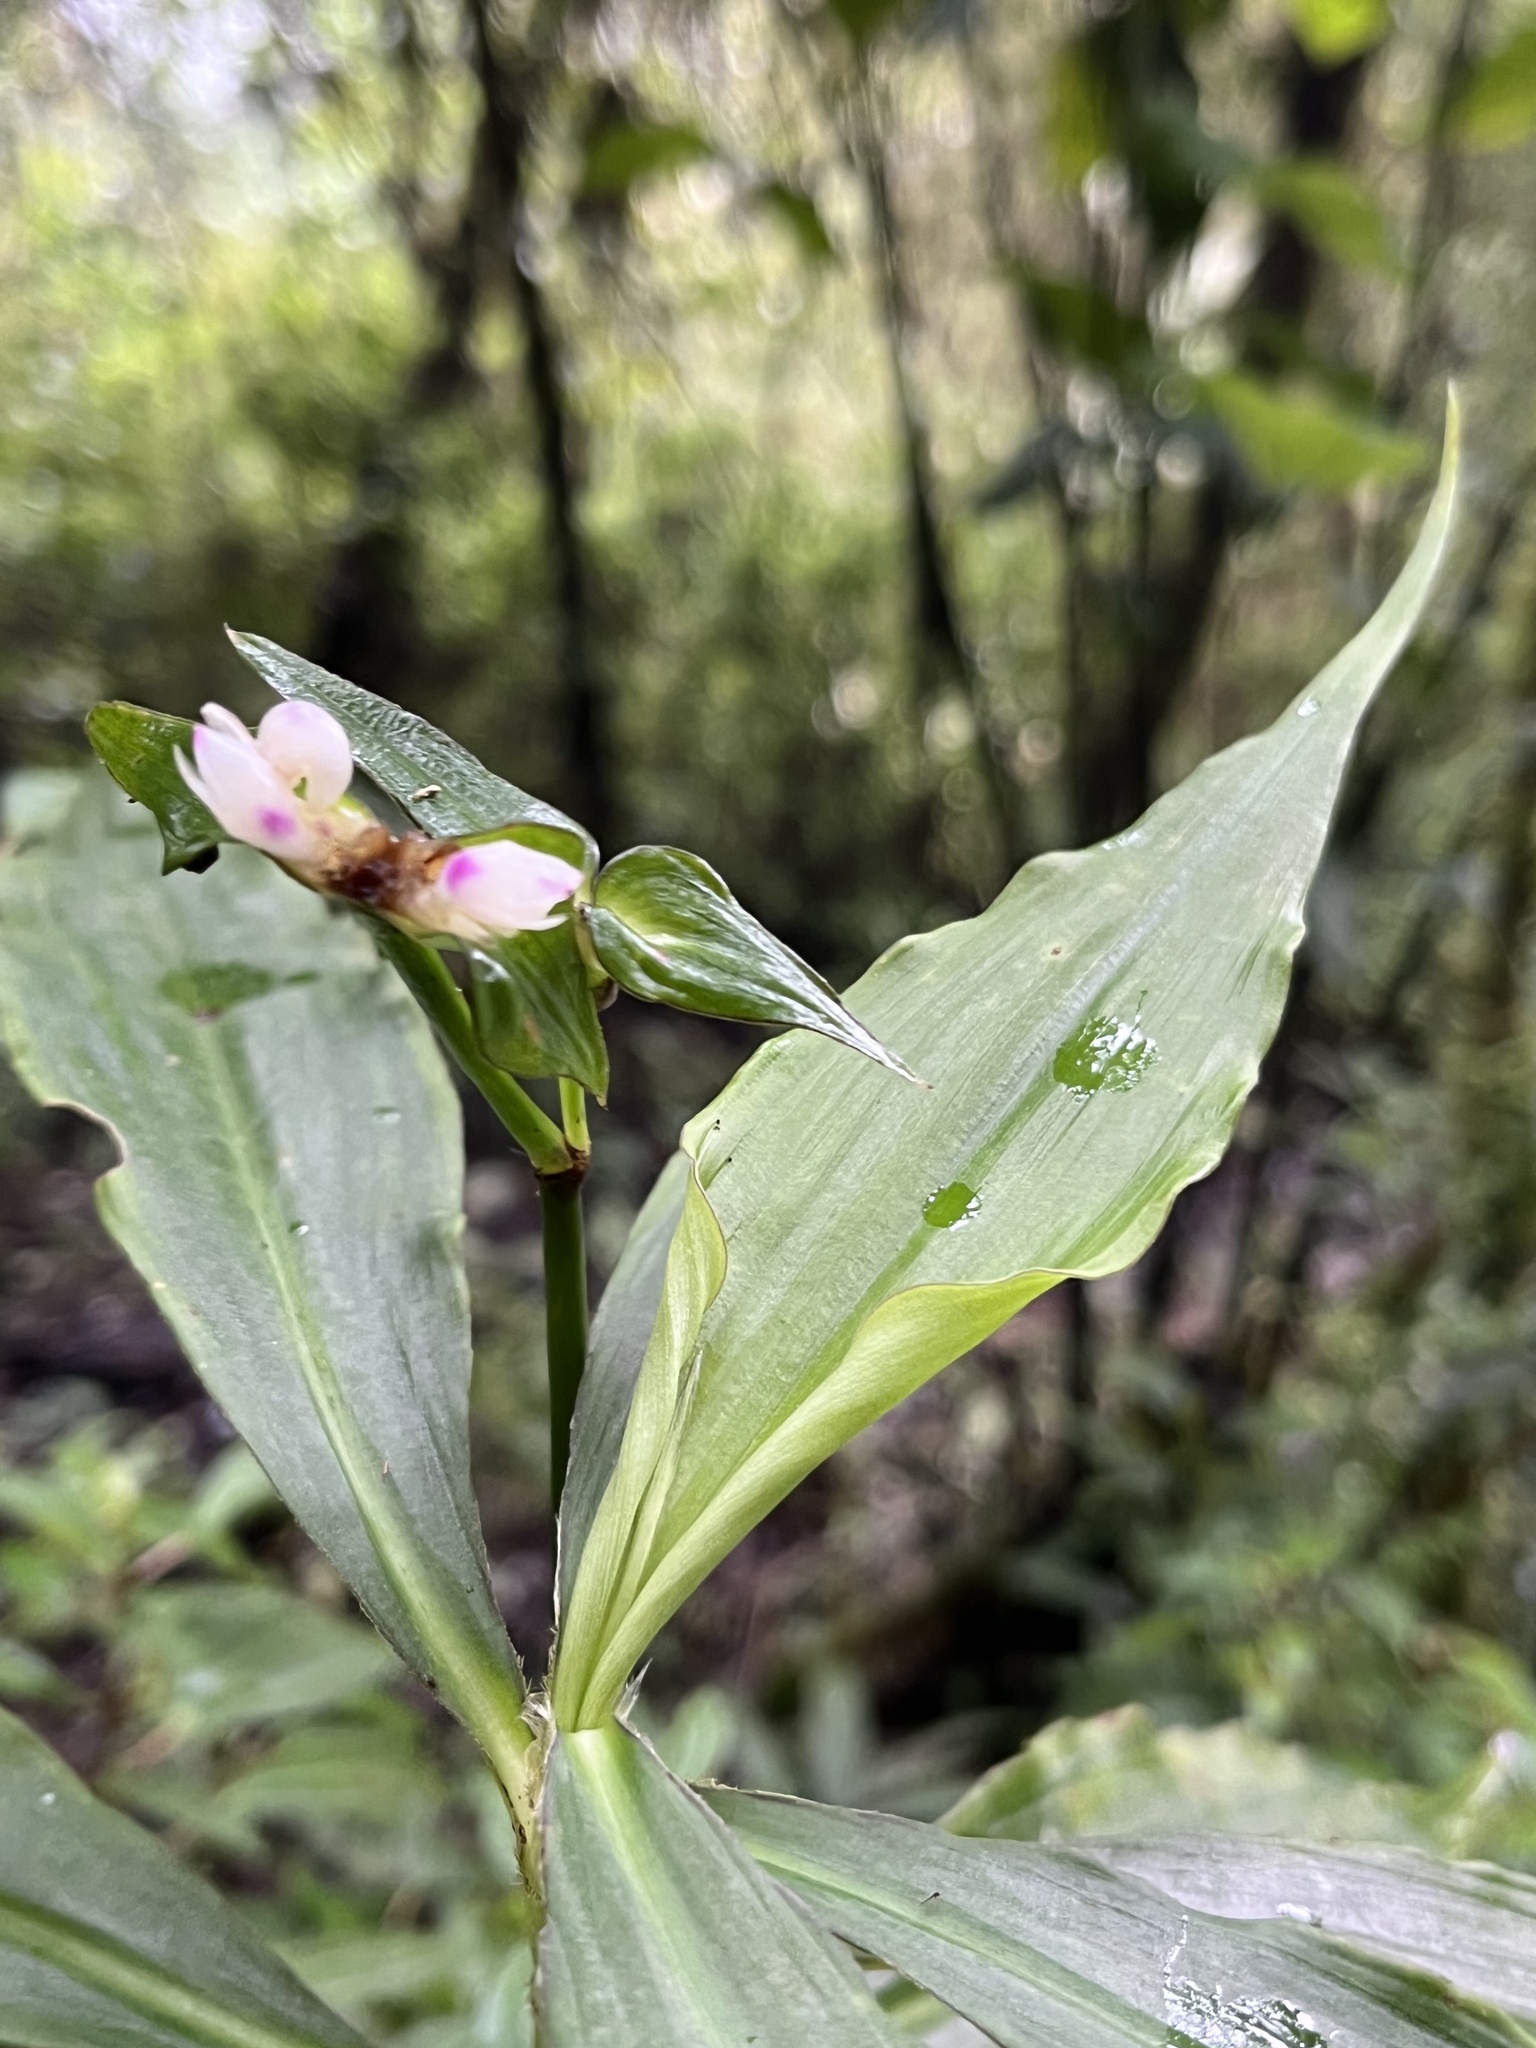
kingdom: Plantae
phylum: Tracheophyta
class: Liliopsida
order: Commelinales
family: Commelinaceae
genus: Tradescantia
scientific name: Tradescantia zanonia
